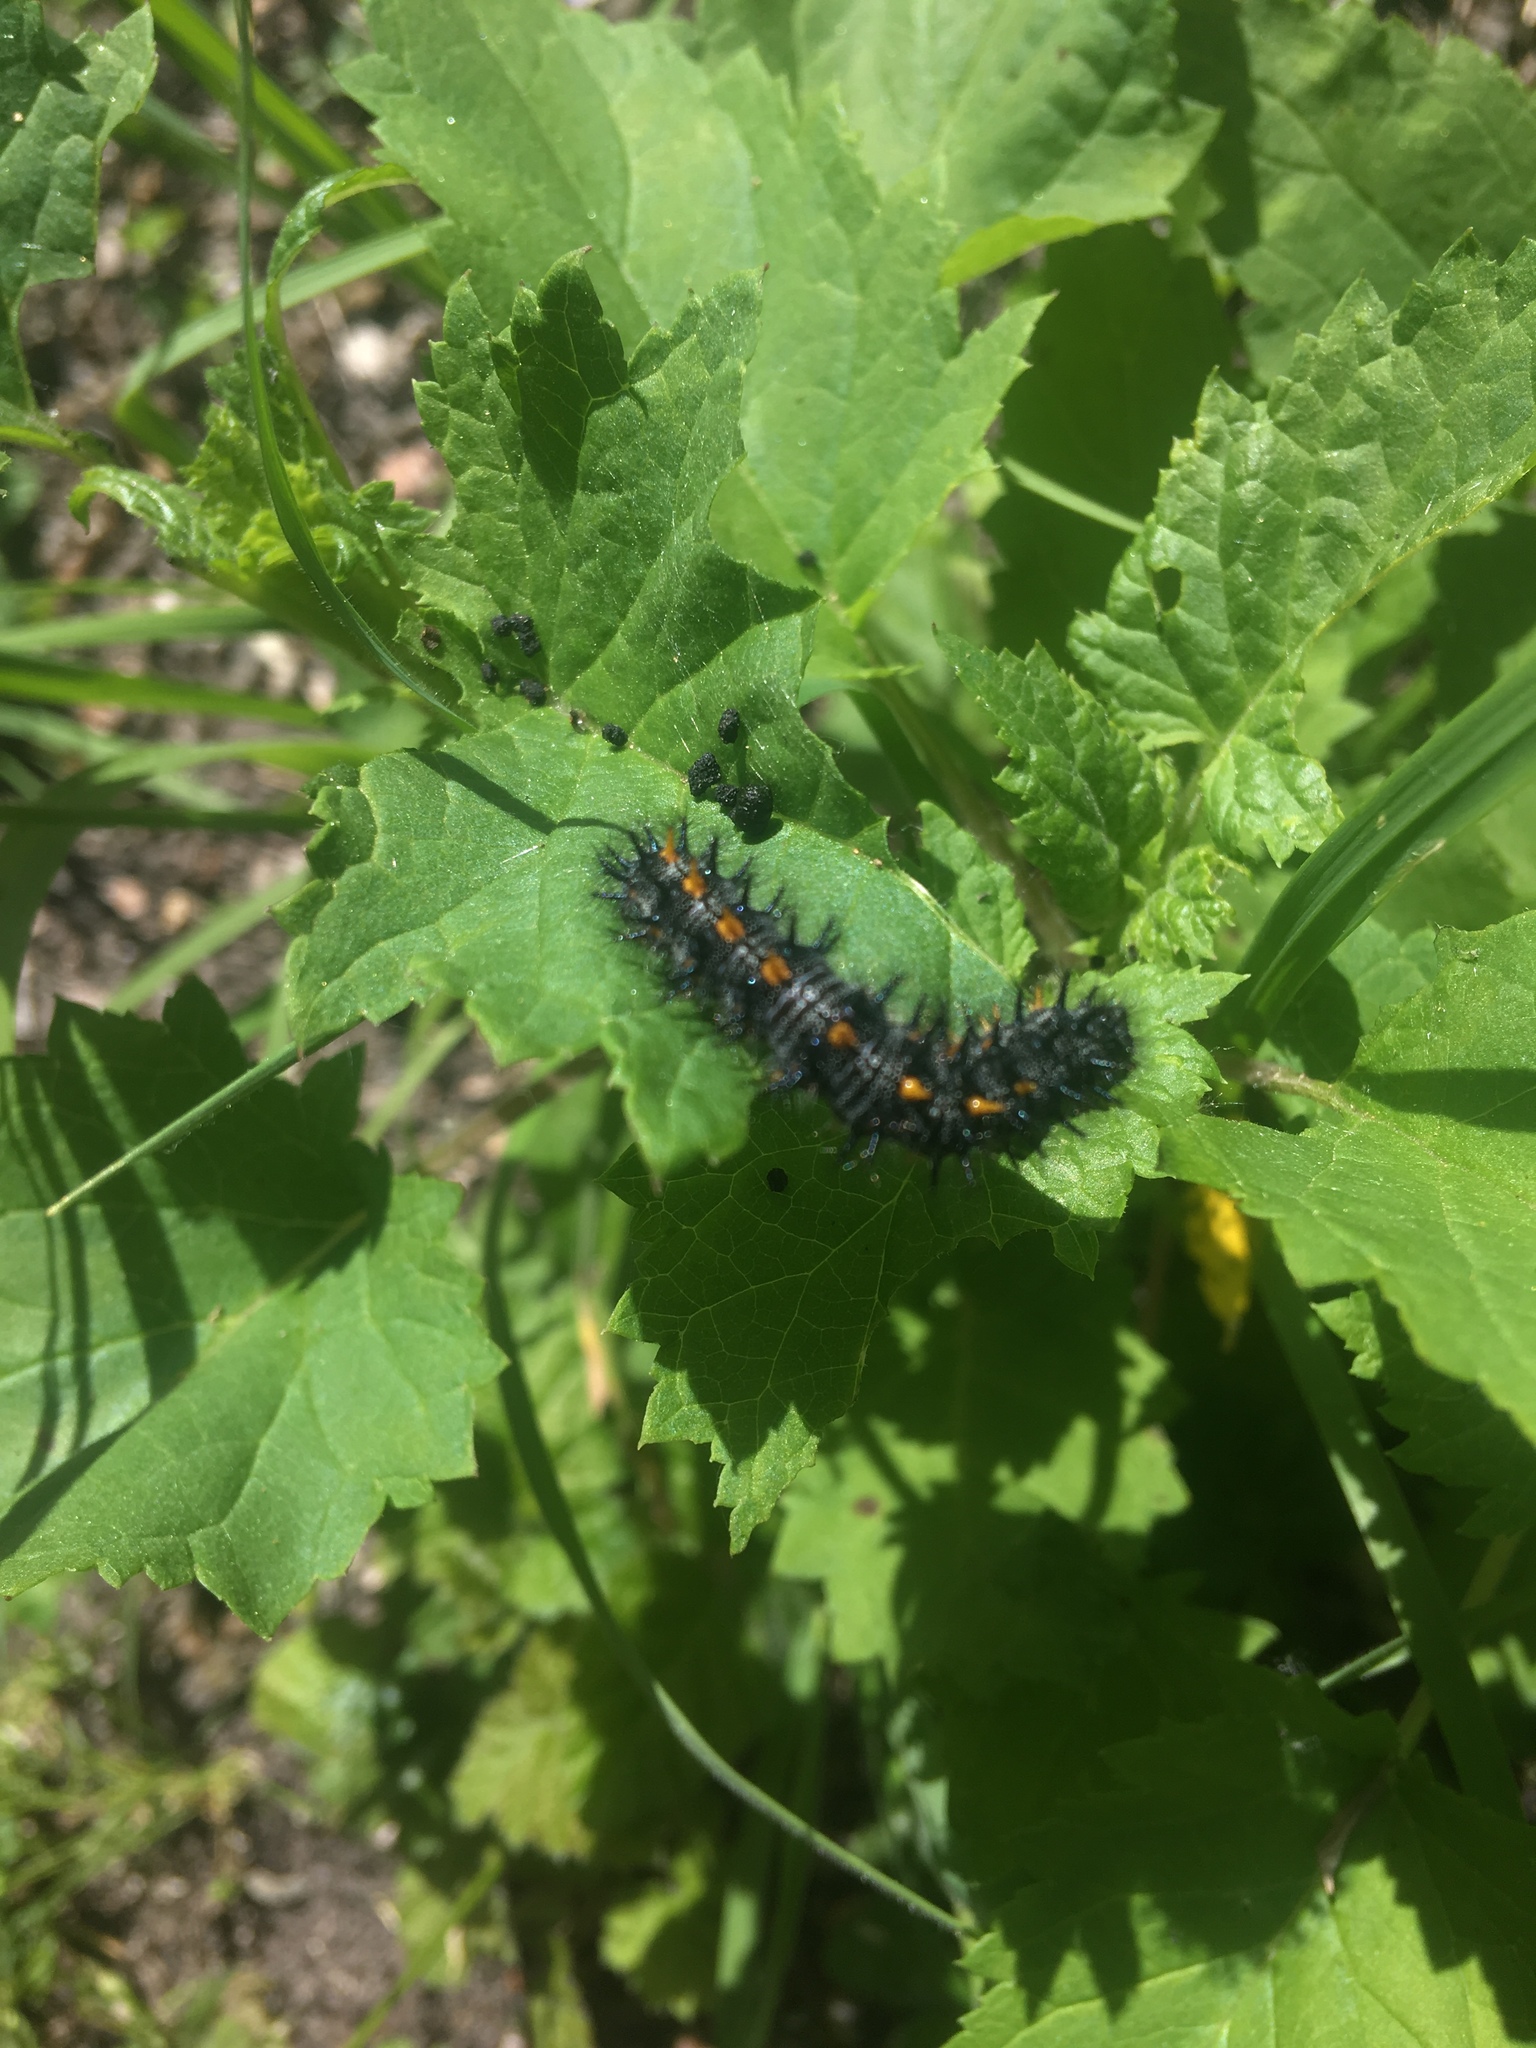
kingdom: Animalia
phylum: Arthropoda
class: Insecta
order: Lepidoptera
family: Nymphalidae
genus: Occidryas
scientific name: Occidryas chalcedona
